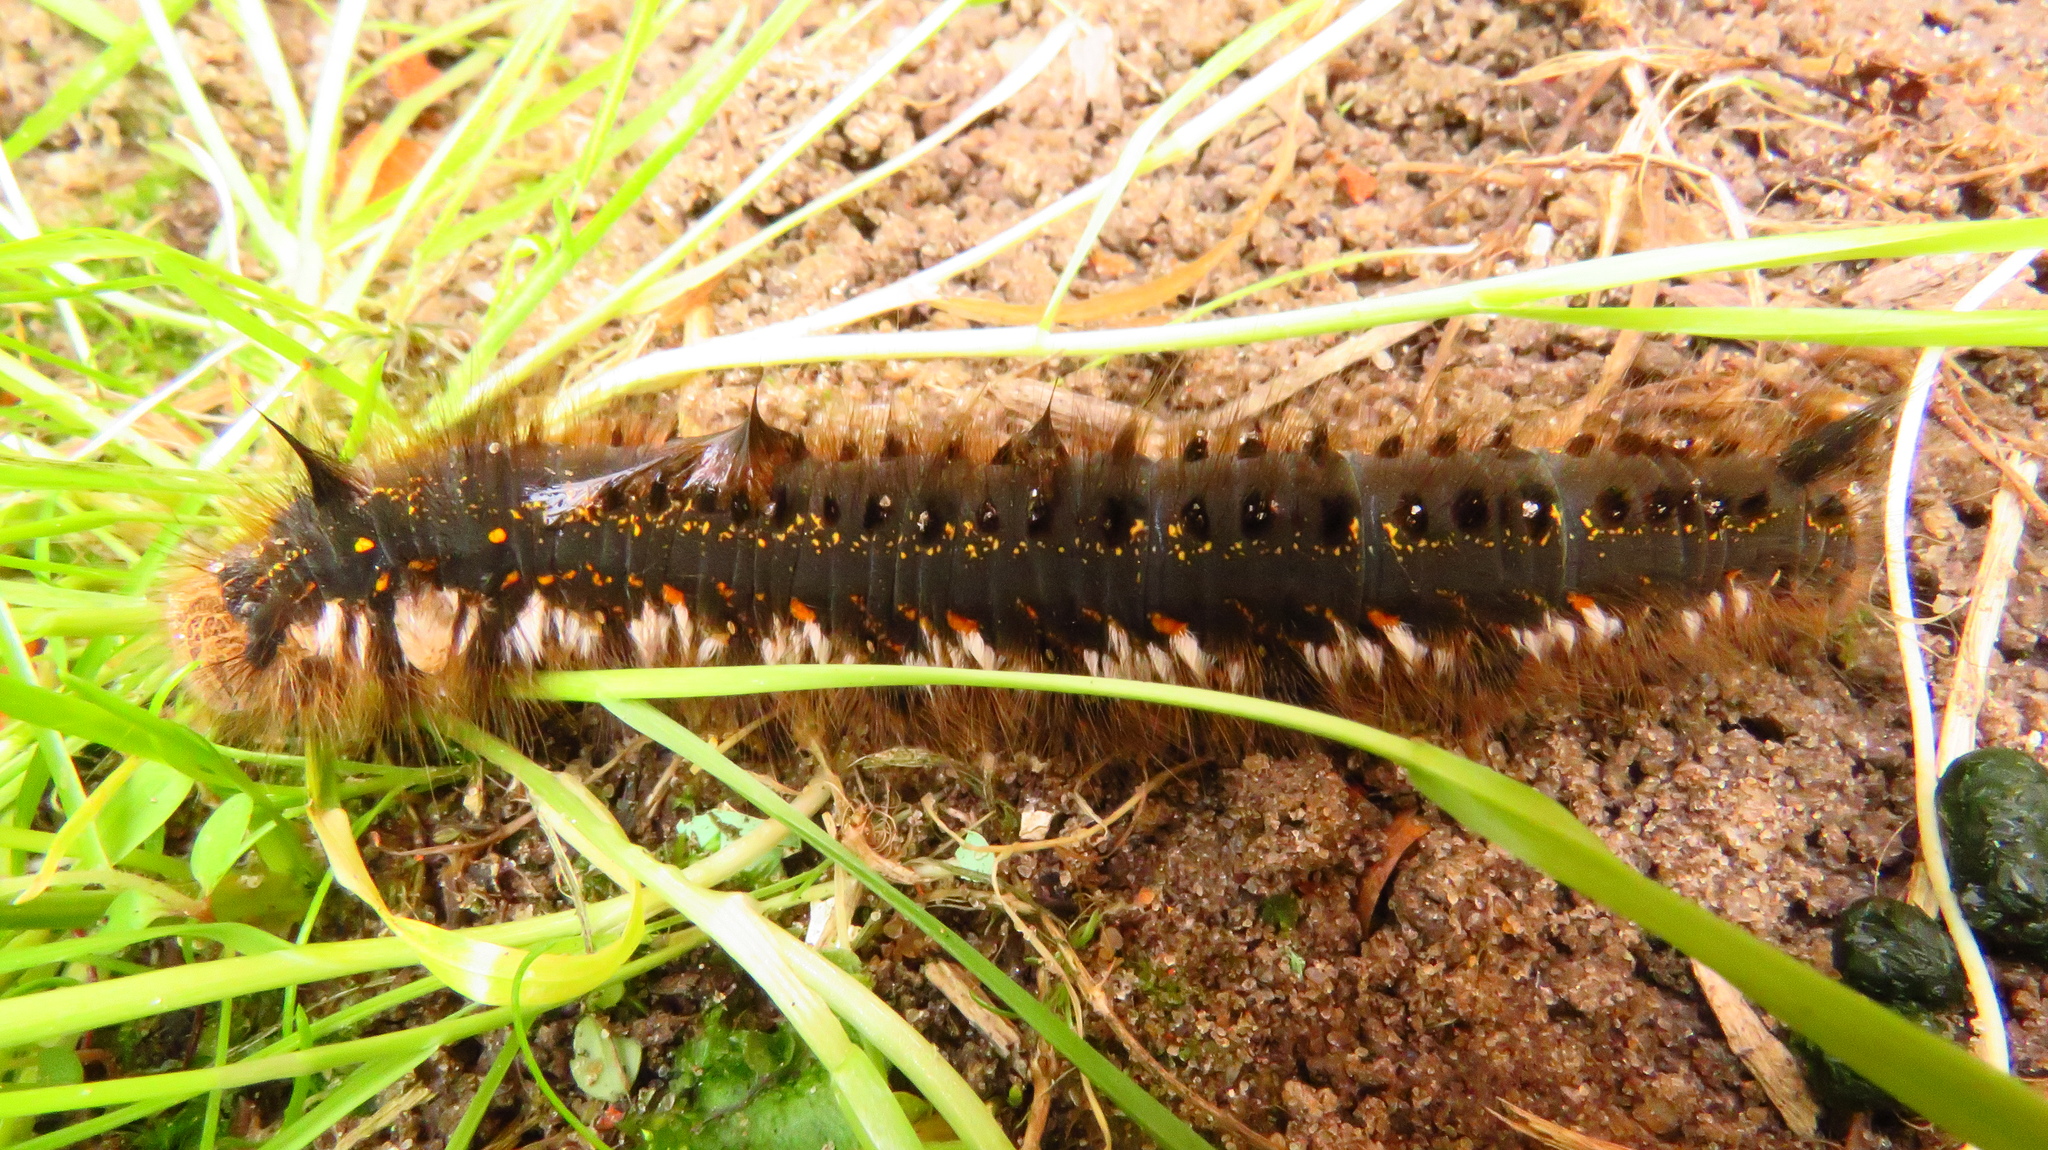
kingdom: Animalia
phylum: Arthropoda
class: Insecta
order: Lepidoptera
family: Lasiocampidae
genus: Euthrix
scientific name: Euthrix potatoria
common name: Drinker
